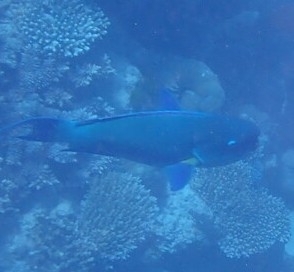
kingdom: Animalia
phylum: Chordata
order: Perciformes
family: Scaridae
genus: Chlorurus
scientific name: Chlorurus microrhinos
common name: Steephead parrotfish
